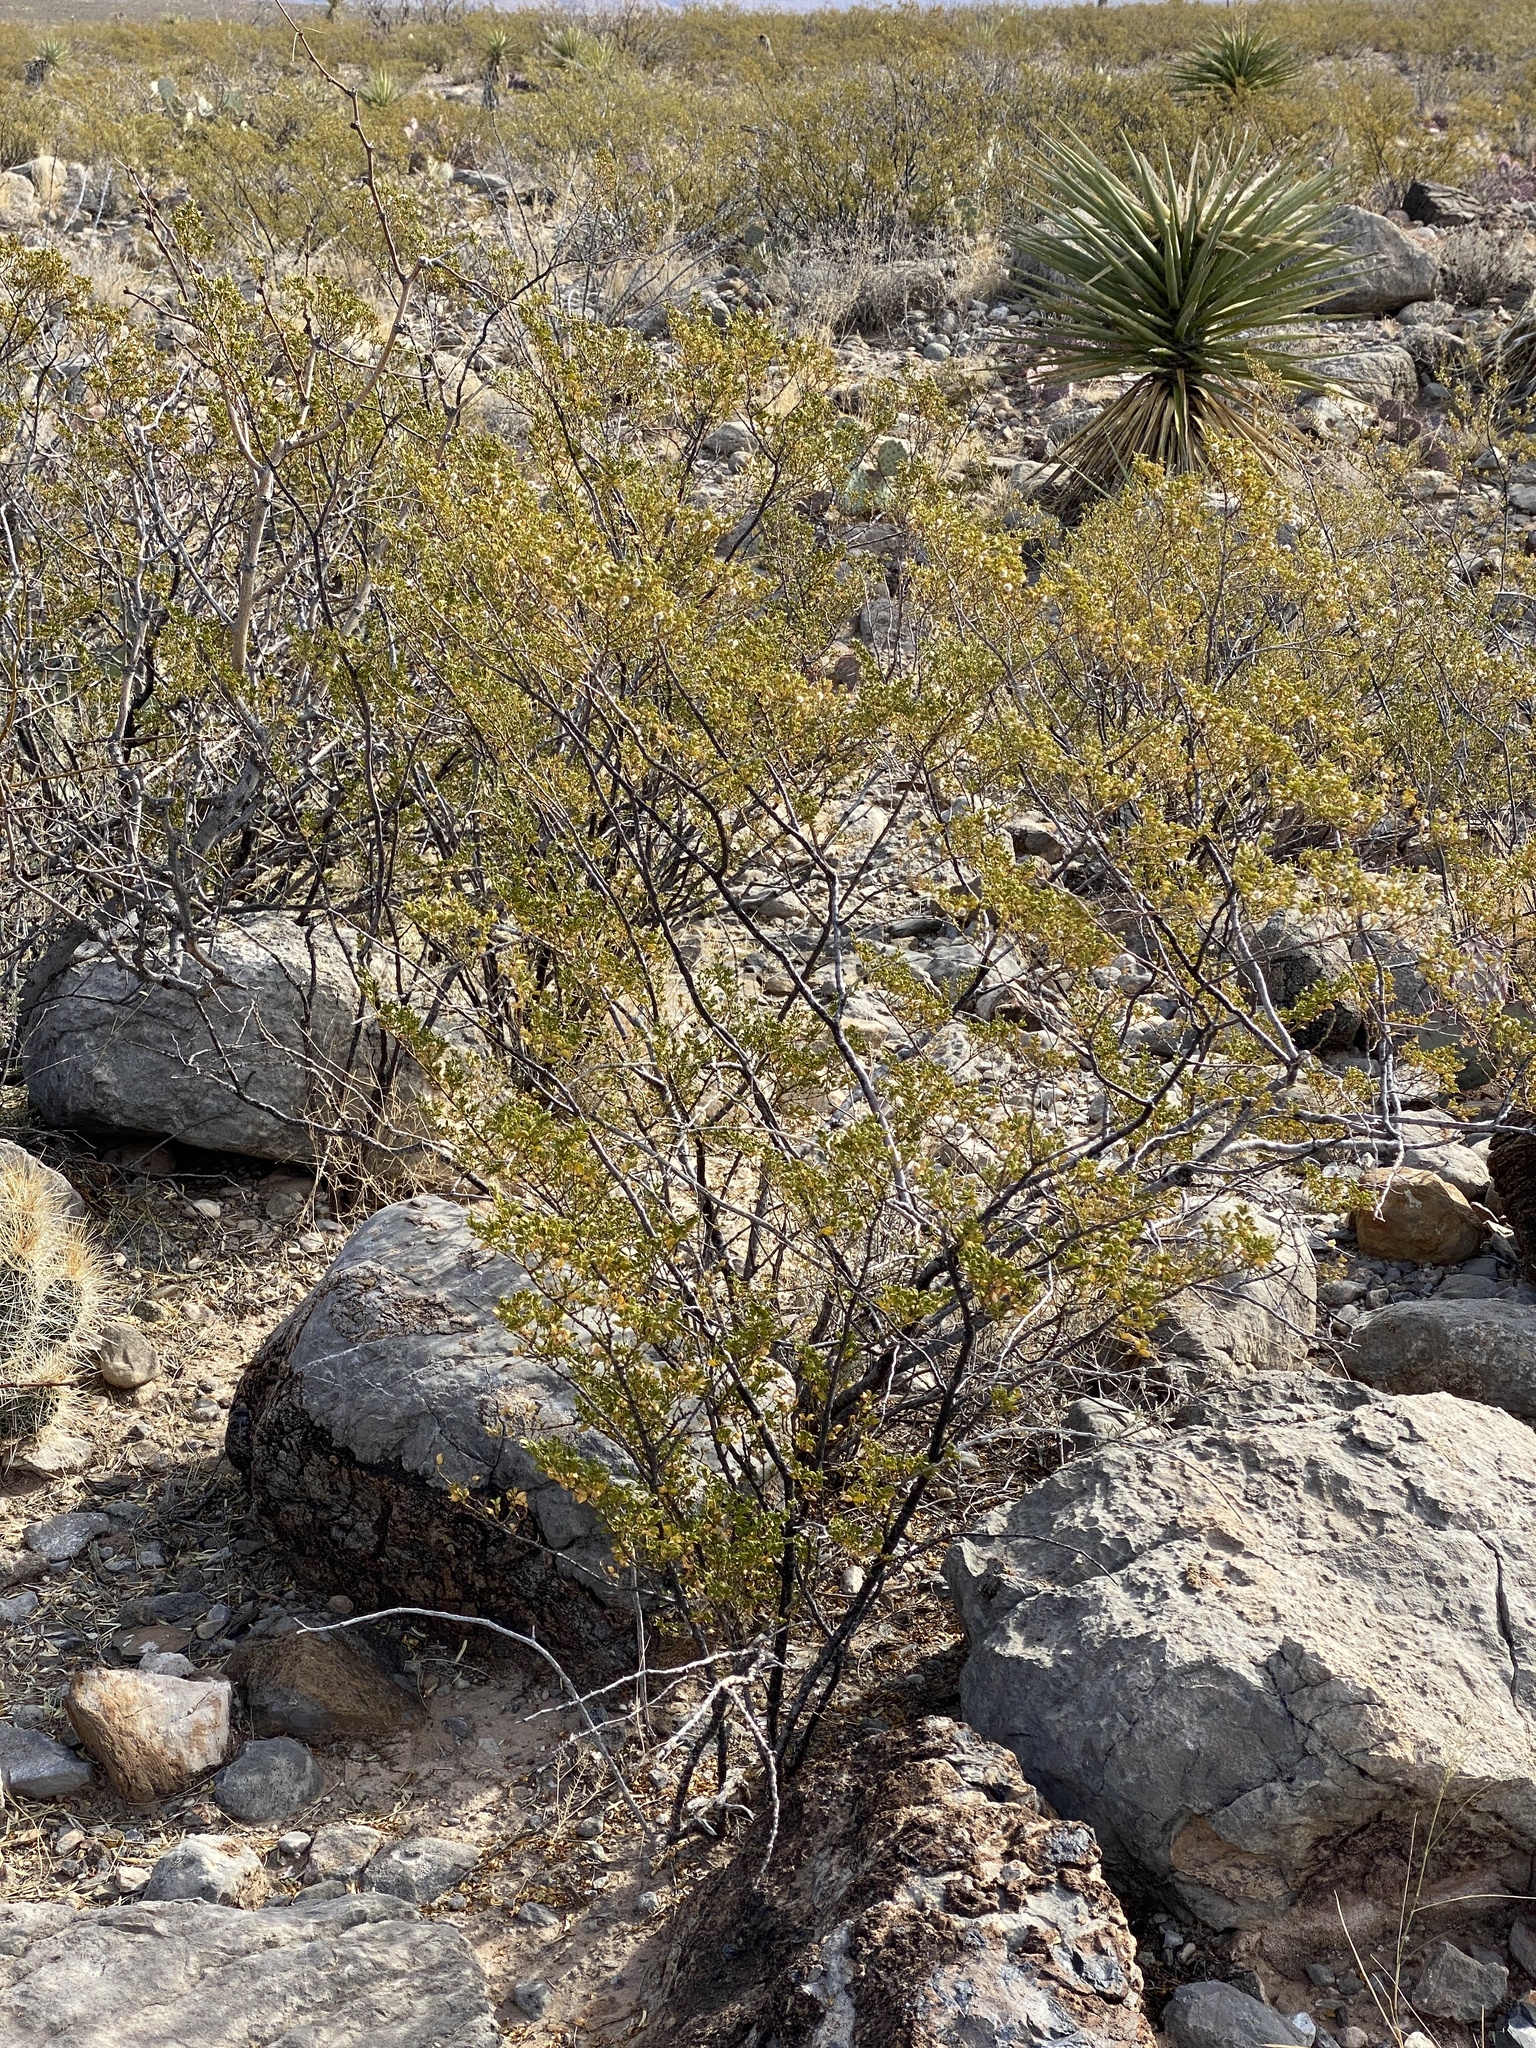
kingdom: Plantae
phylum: Tracheophyta
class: Magnoliopsida
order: Zygophyllales
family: Zygophyllaceae
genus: Larrea
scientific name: Larrea tridentata
